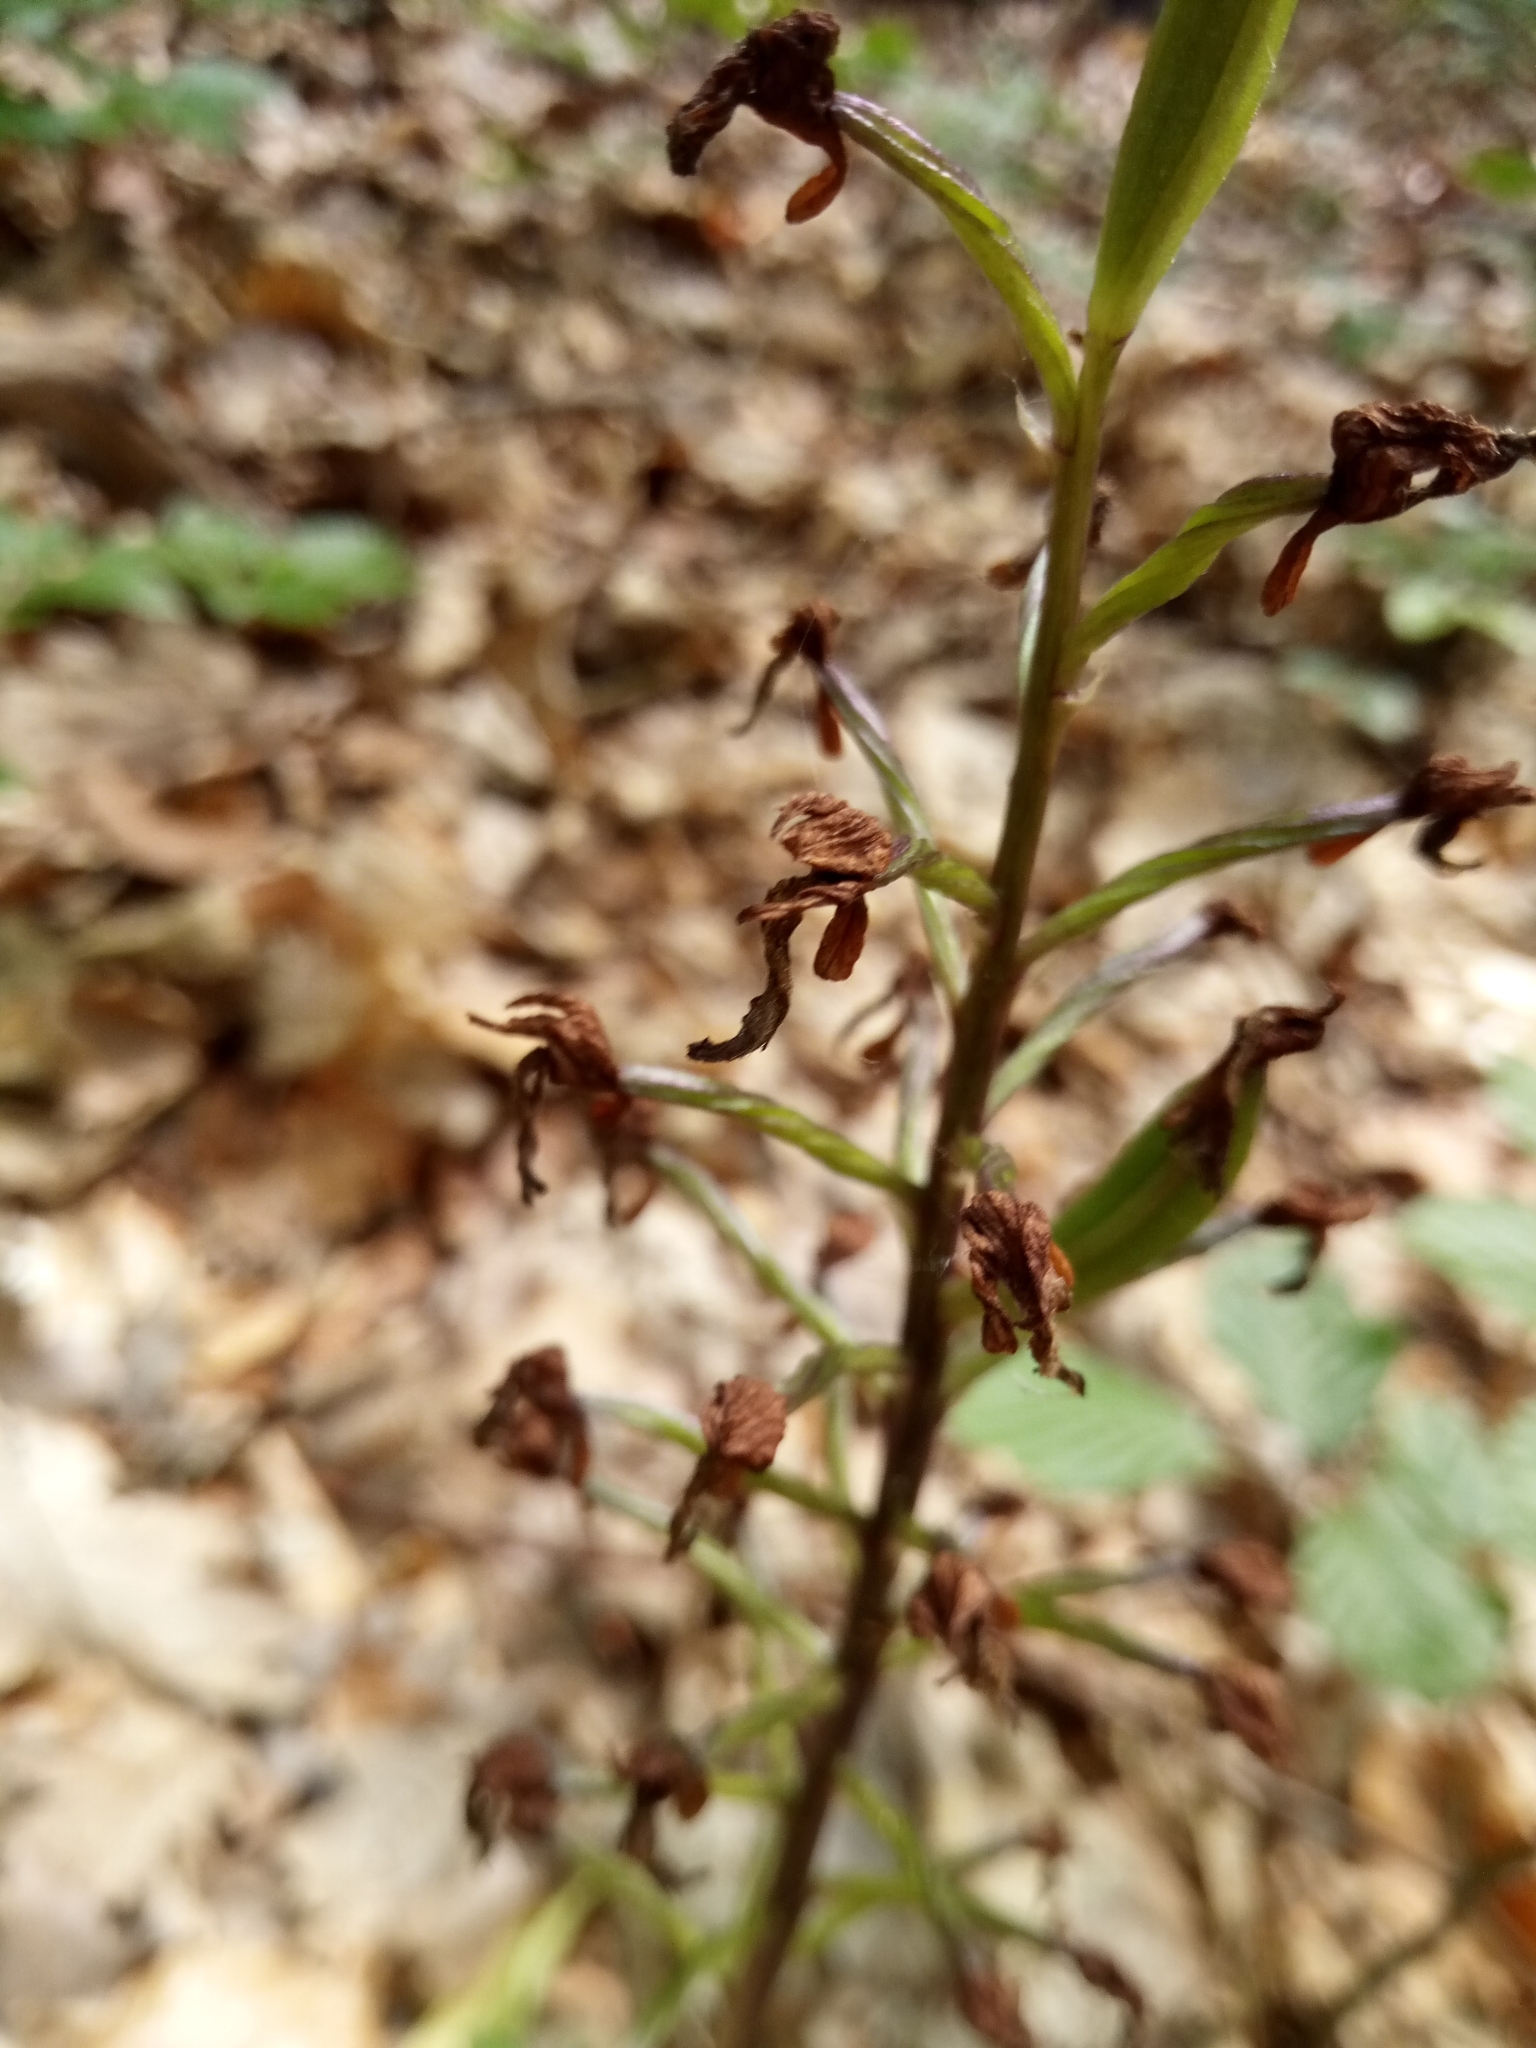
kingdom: Plantae
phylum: Tracheophyta
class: Liliopsida
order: Asparagales
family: Orchidaceae
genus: Orchis
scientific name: Orchis purpurea
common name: Lady orchid
